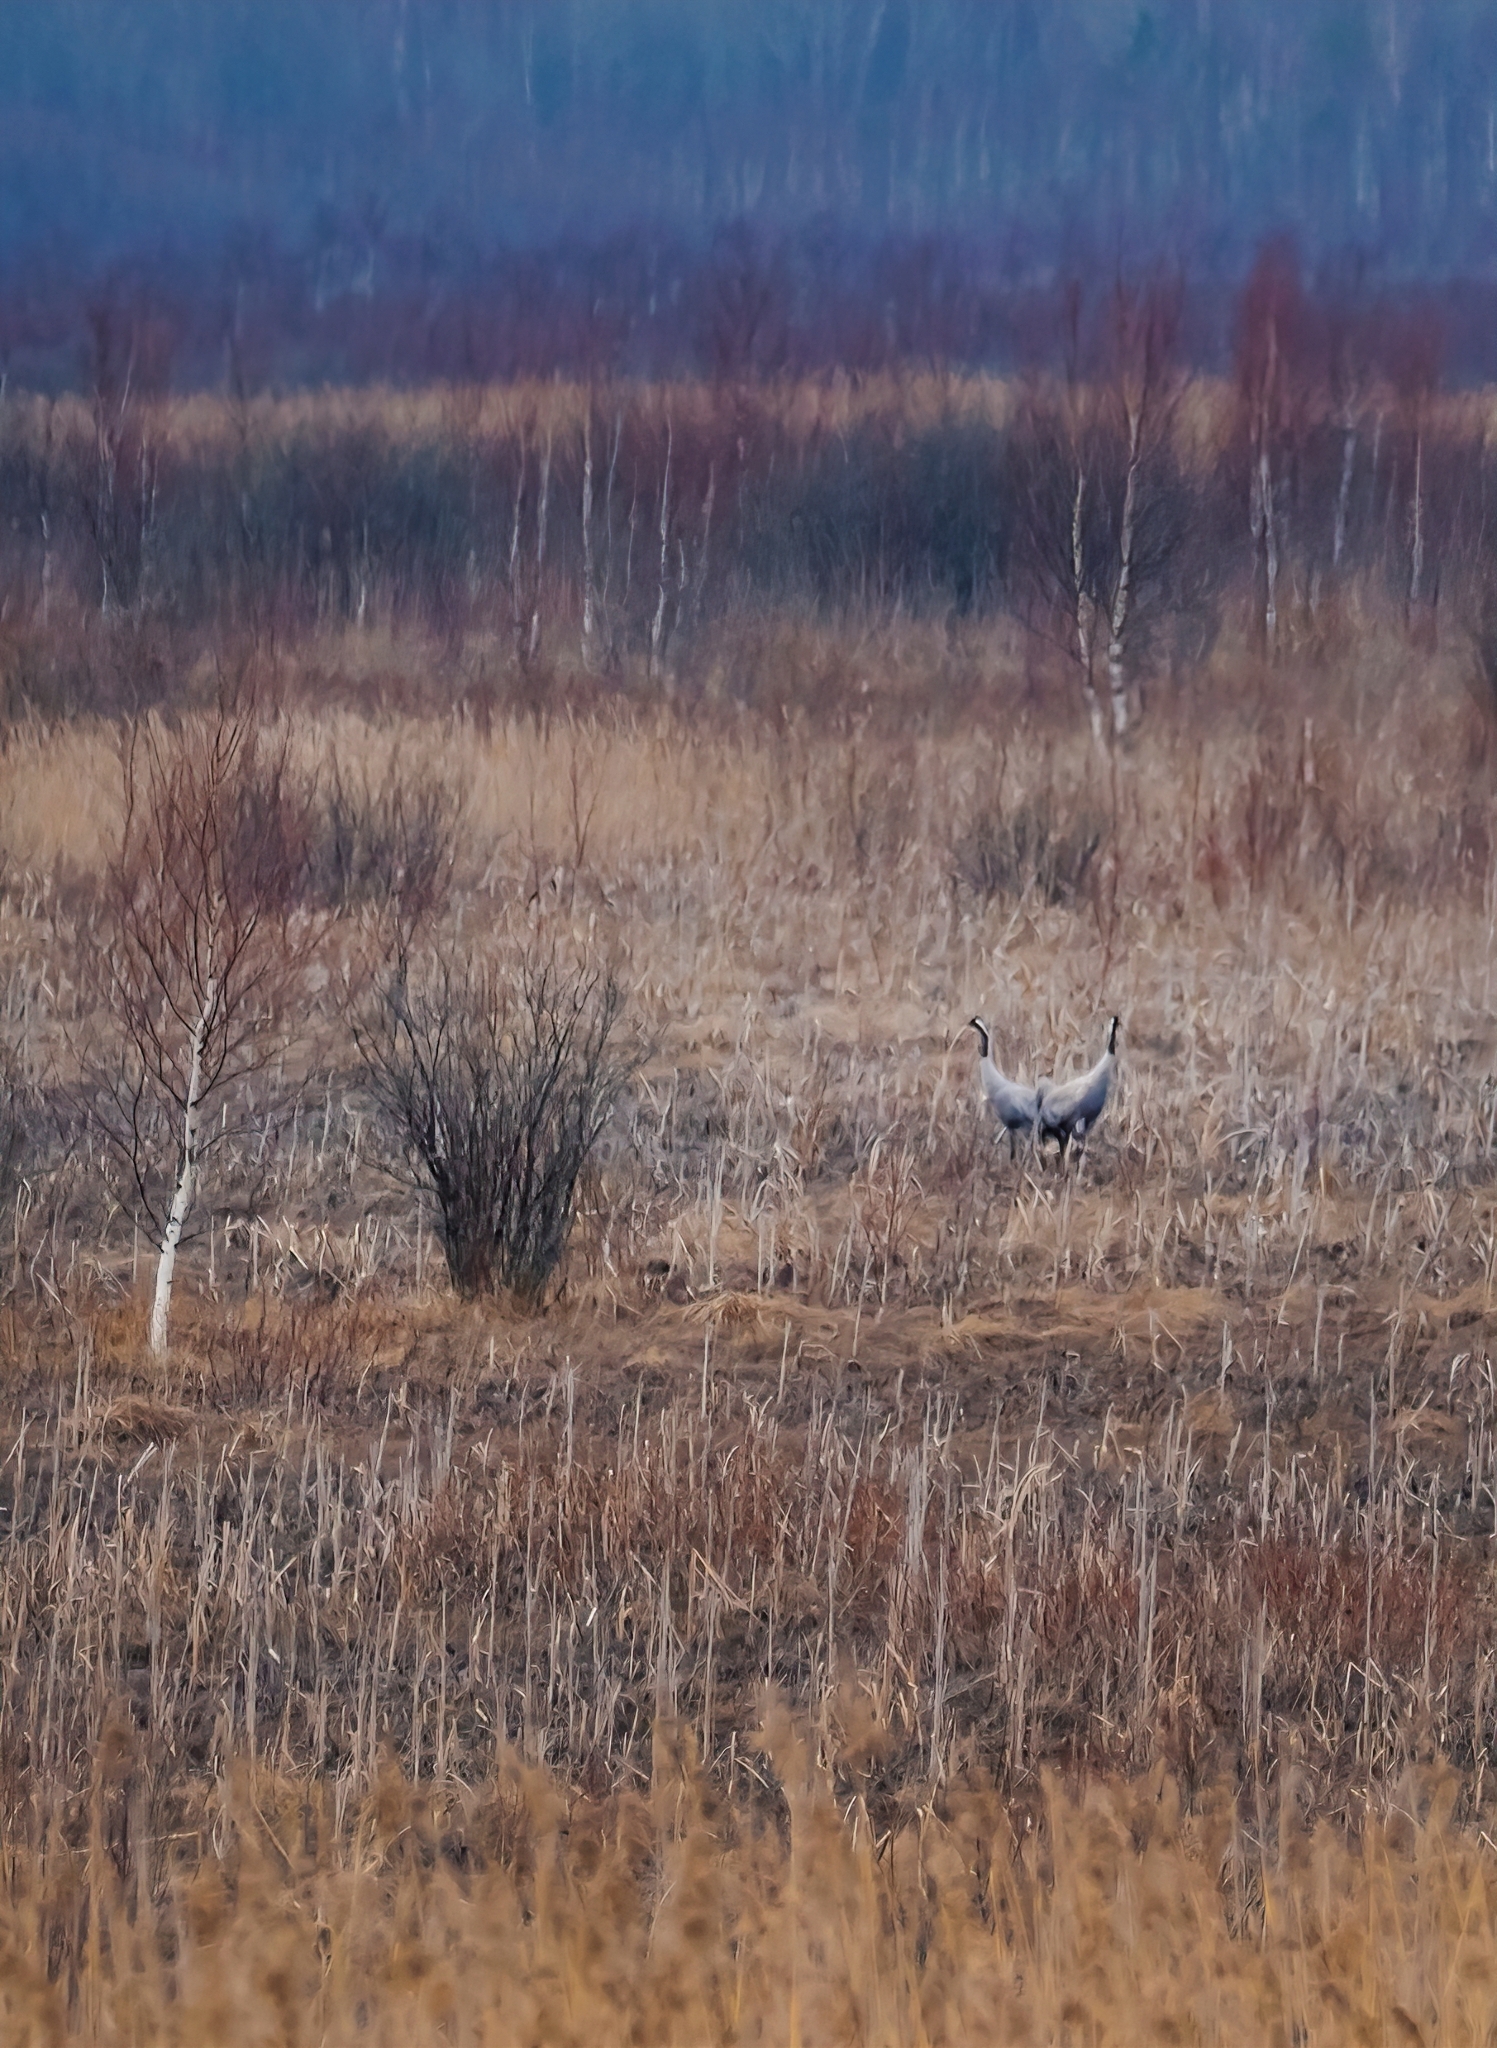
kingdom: Animalia
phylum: Chordata
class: Aves
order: Gruiformes
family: Gruidae
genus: Grus
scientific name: Grus grus
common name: Common crane
